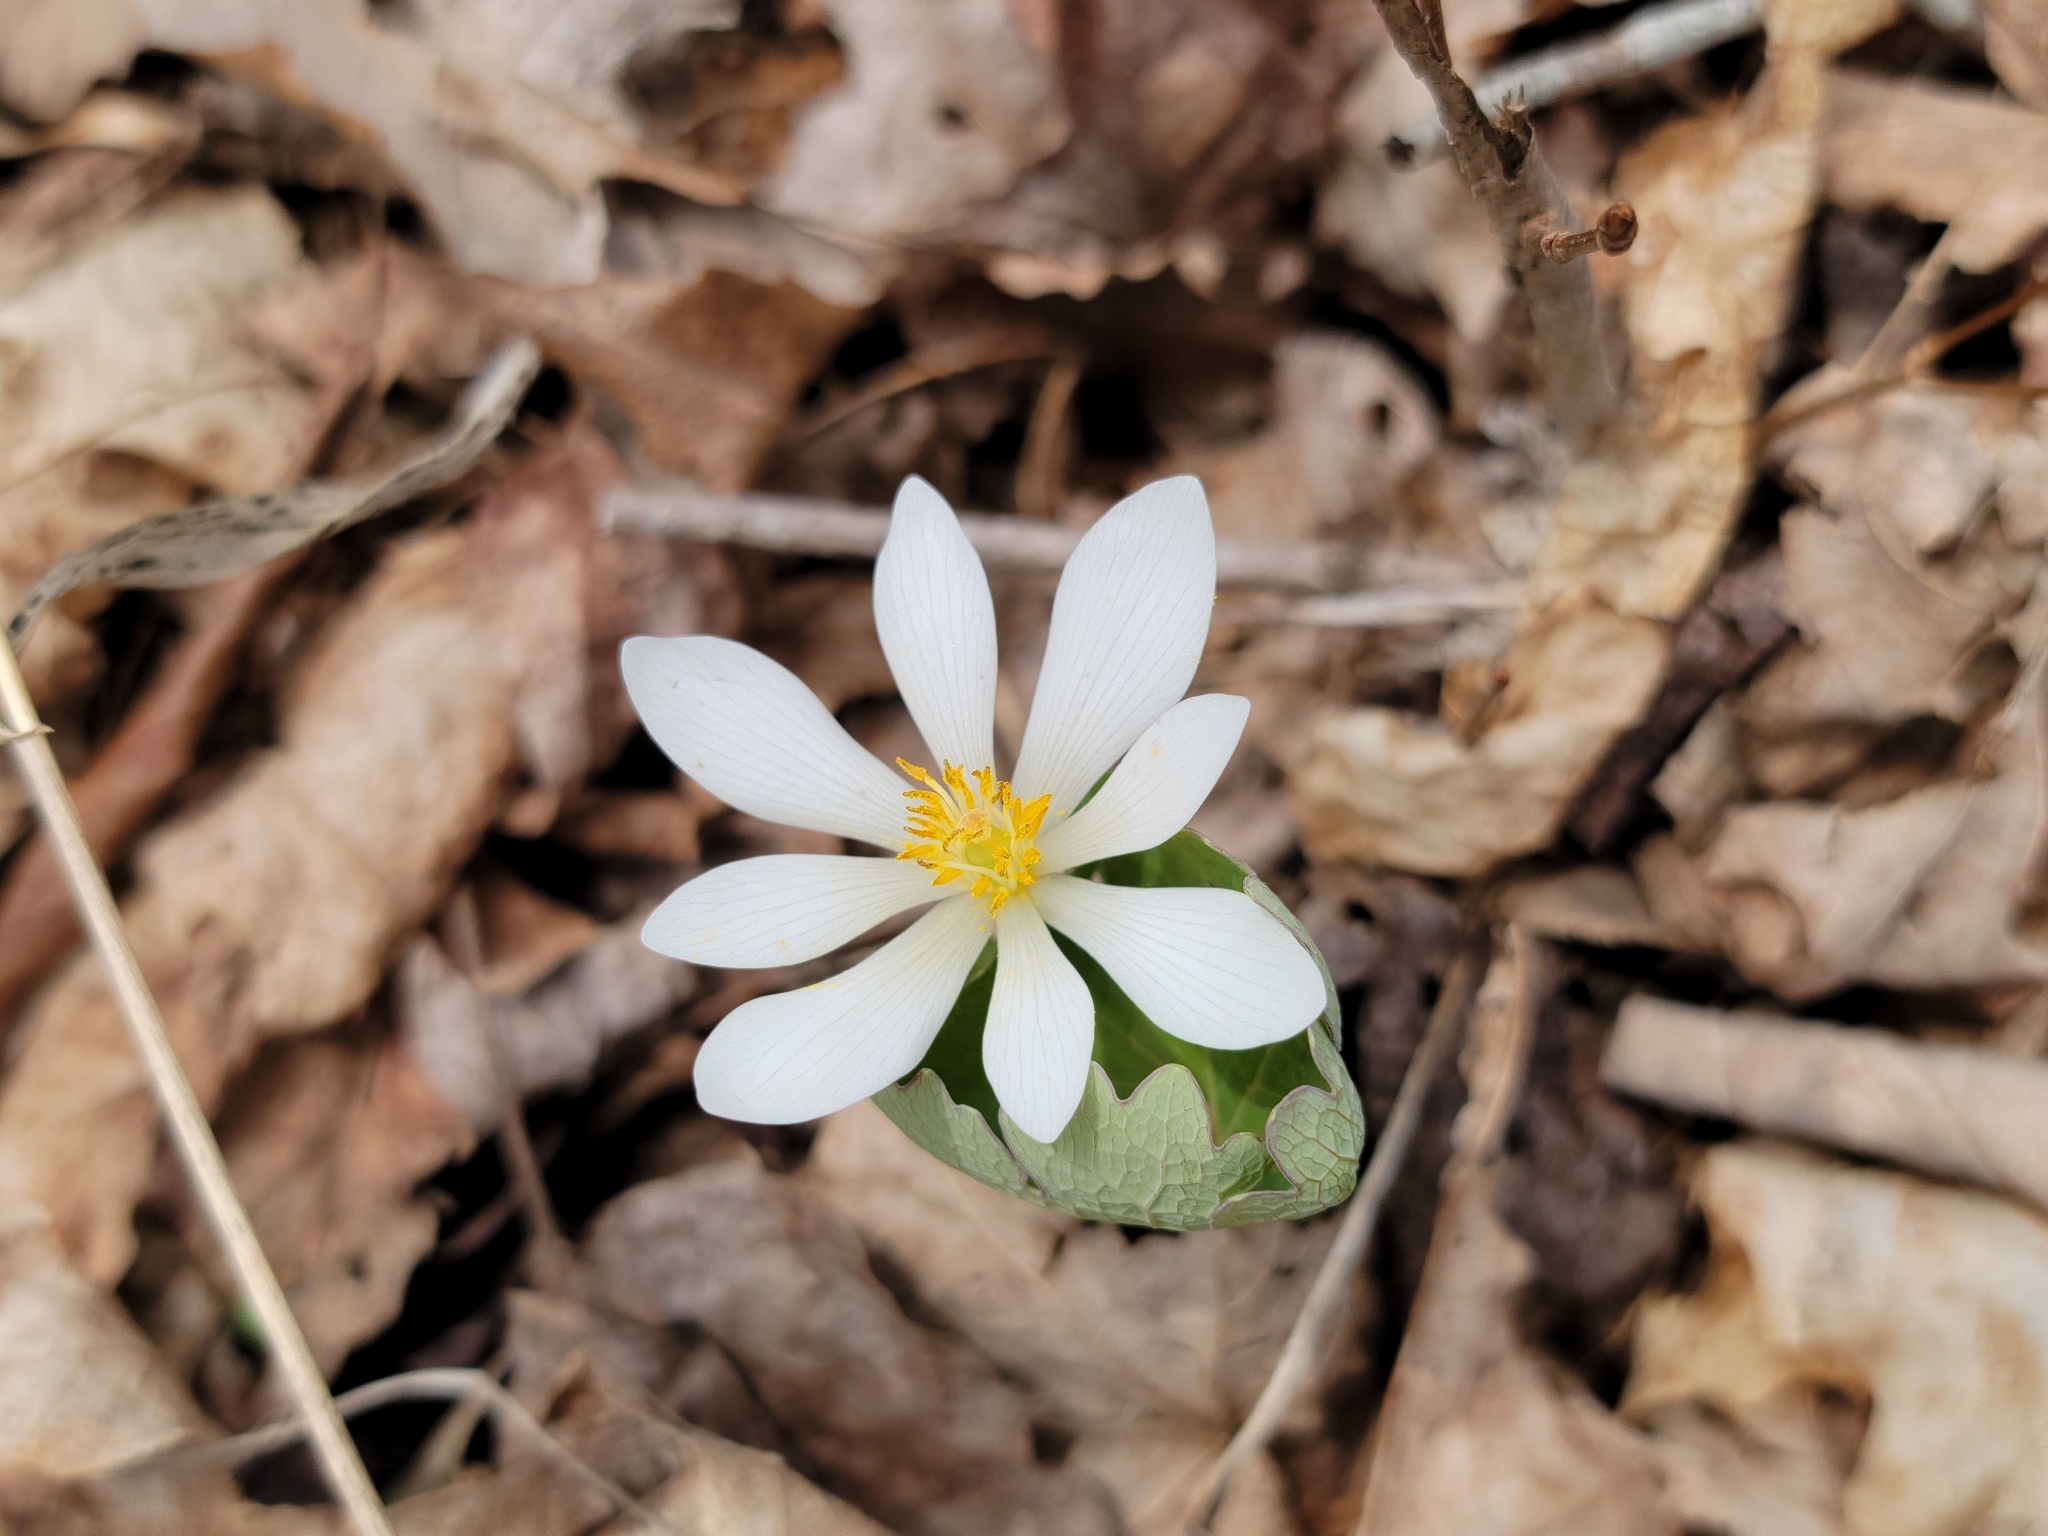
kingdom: Plantae
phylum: Tracheophyta
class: Magnoliopsida
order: Ranunculales
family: Papaveraceae
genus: Sanguinaria
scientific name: Sanguinaria canadensis
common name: Bloodroot
